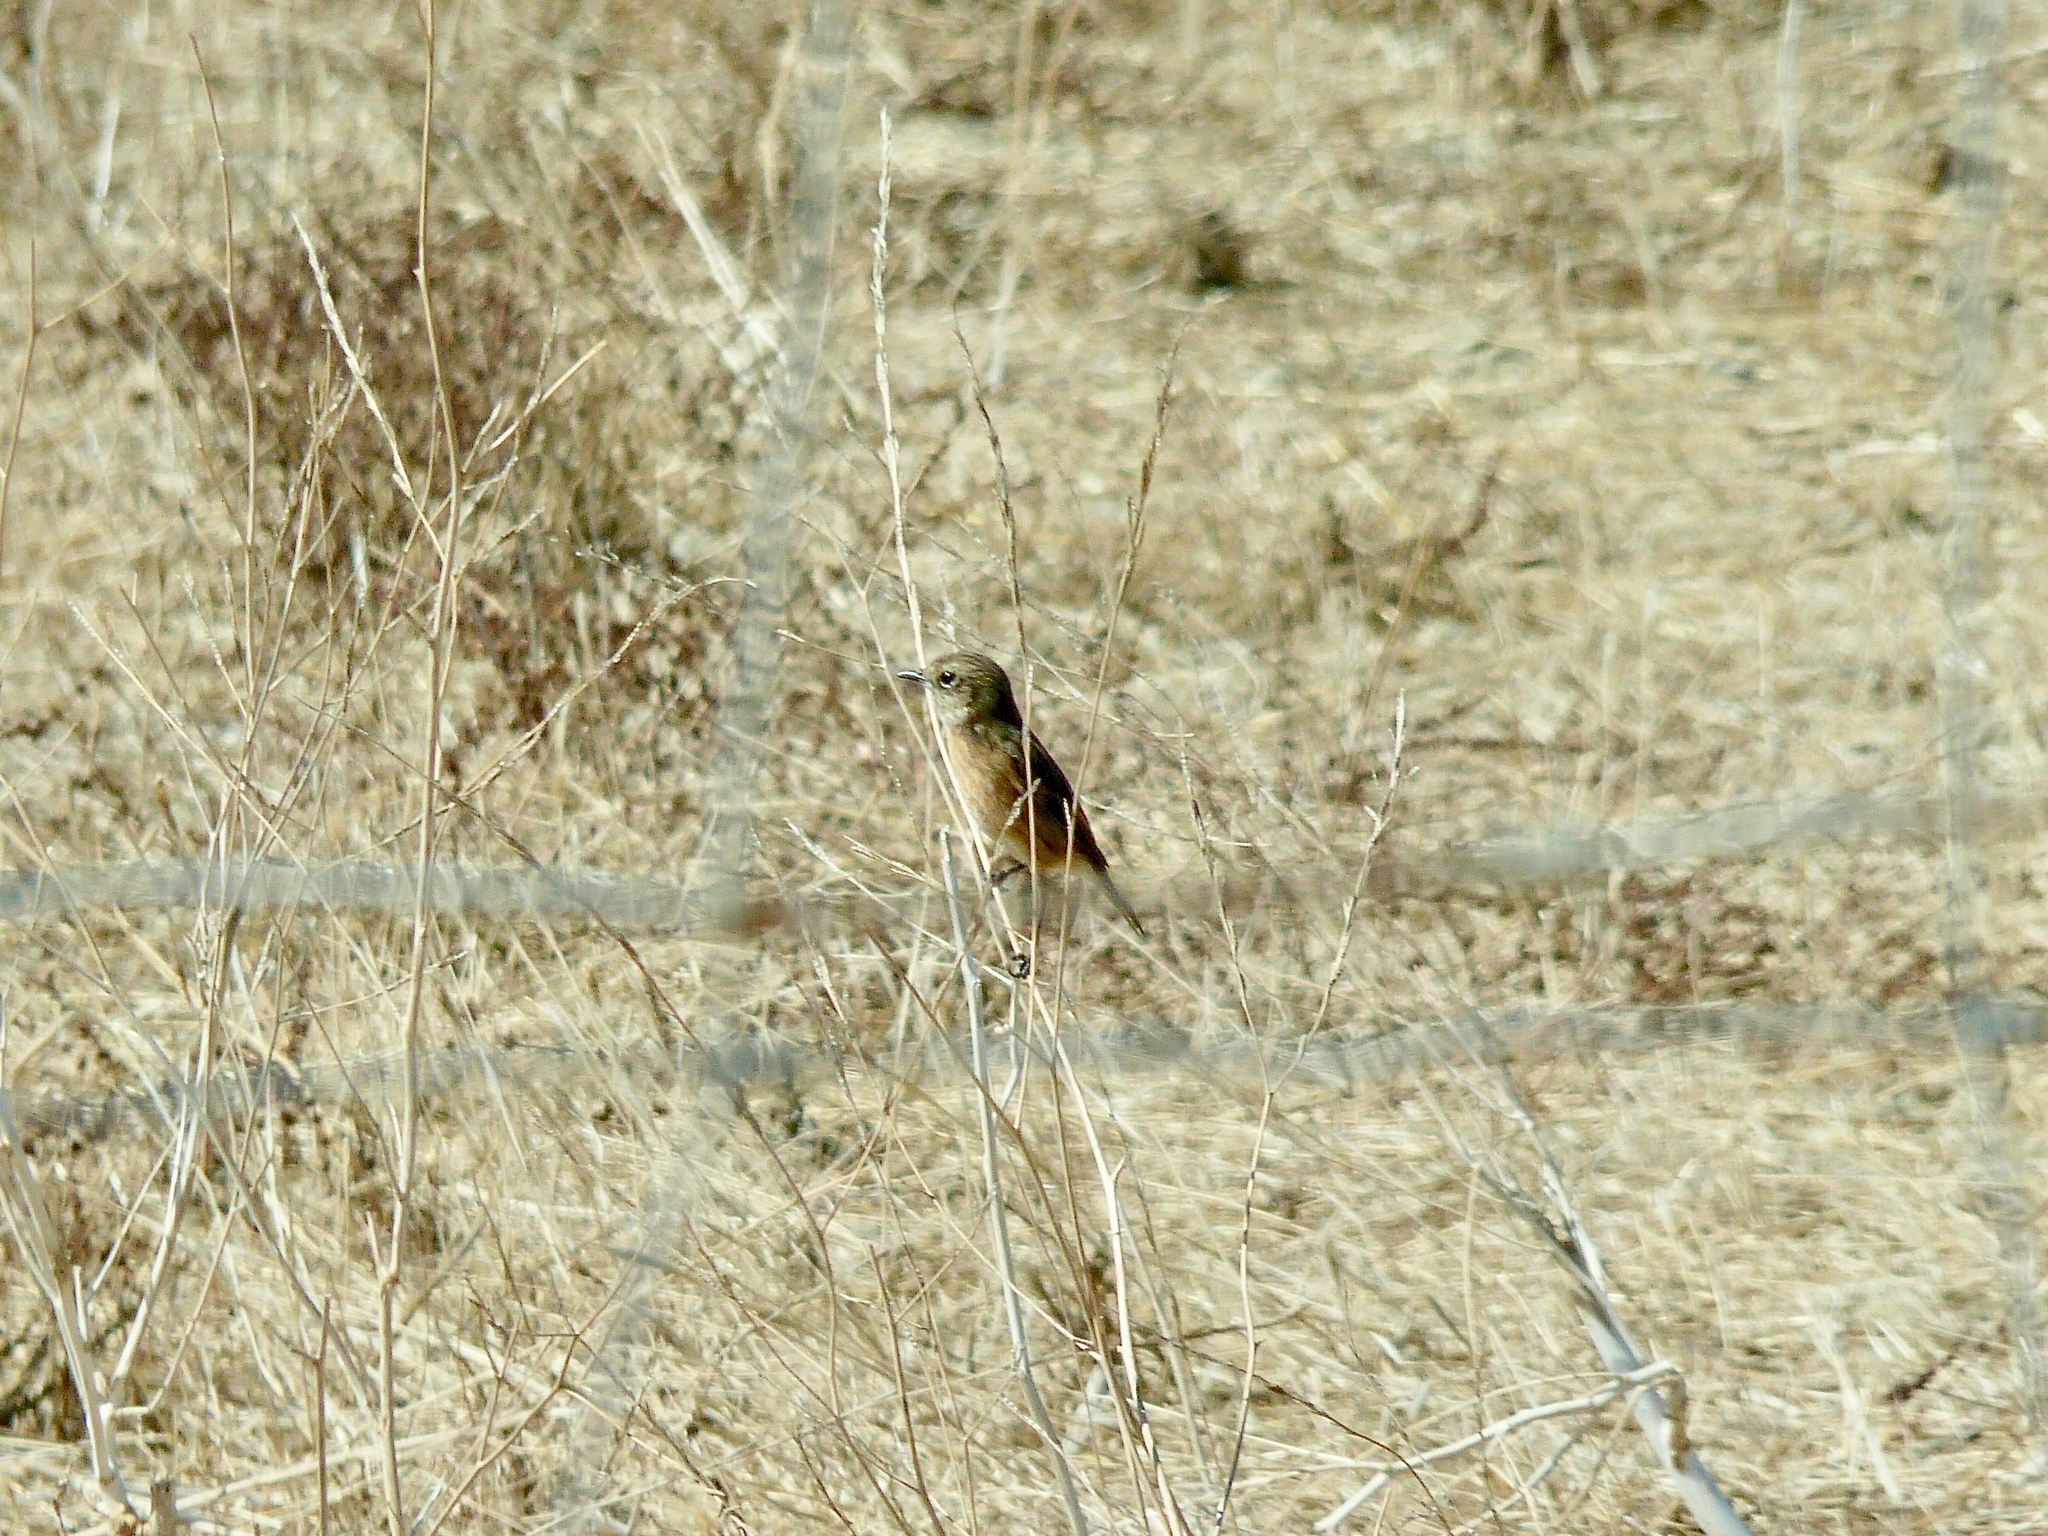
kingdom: Animalia
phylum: Chordata
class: Aves
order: Passeriformes
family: Muscicapidae
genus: Saxicola
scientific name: Saxicola rubicola
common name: European stonechat
